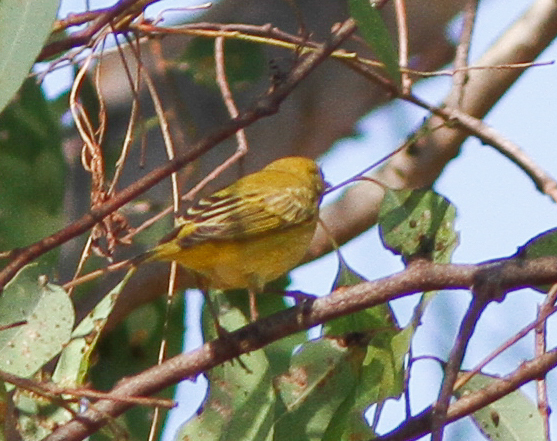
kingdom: Animalia
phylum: Chordata
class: Aves
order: Passeriformes
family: Parulidae
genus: Setophaga
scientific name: Setophaga petechia
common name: Yellow warbler
